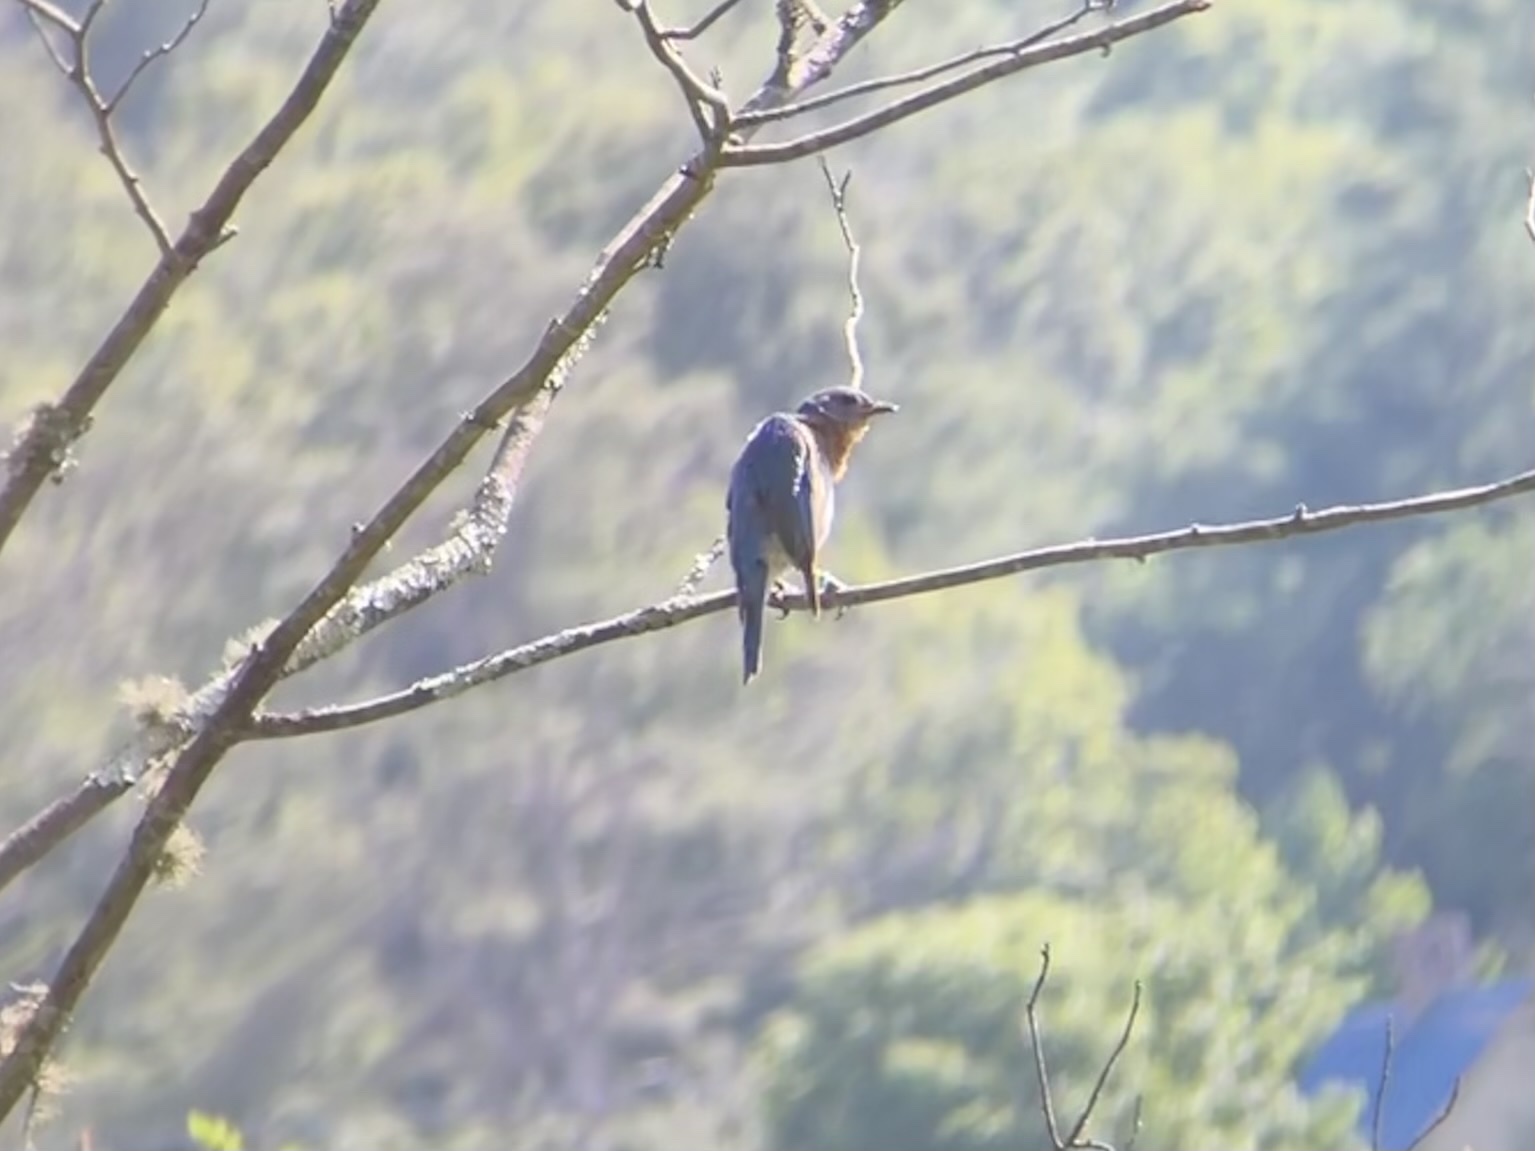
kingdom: Animalia
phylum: Chordata
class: Aves
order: Passeriformes
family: Turdidae
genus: Sialia
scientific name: Sialia sialis
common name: Eastern bluebird
